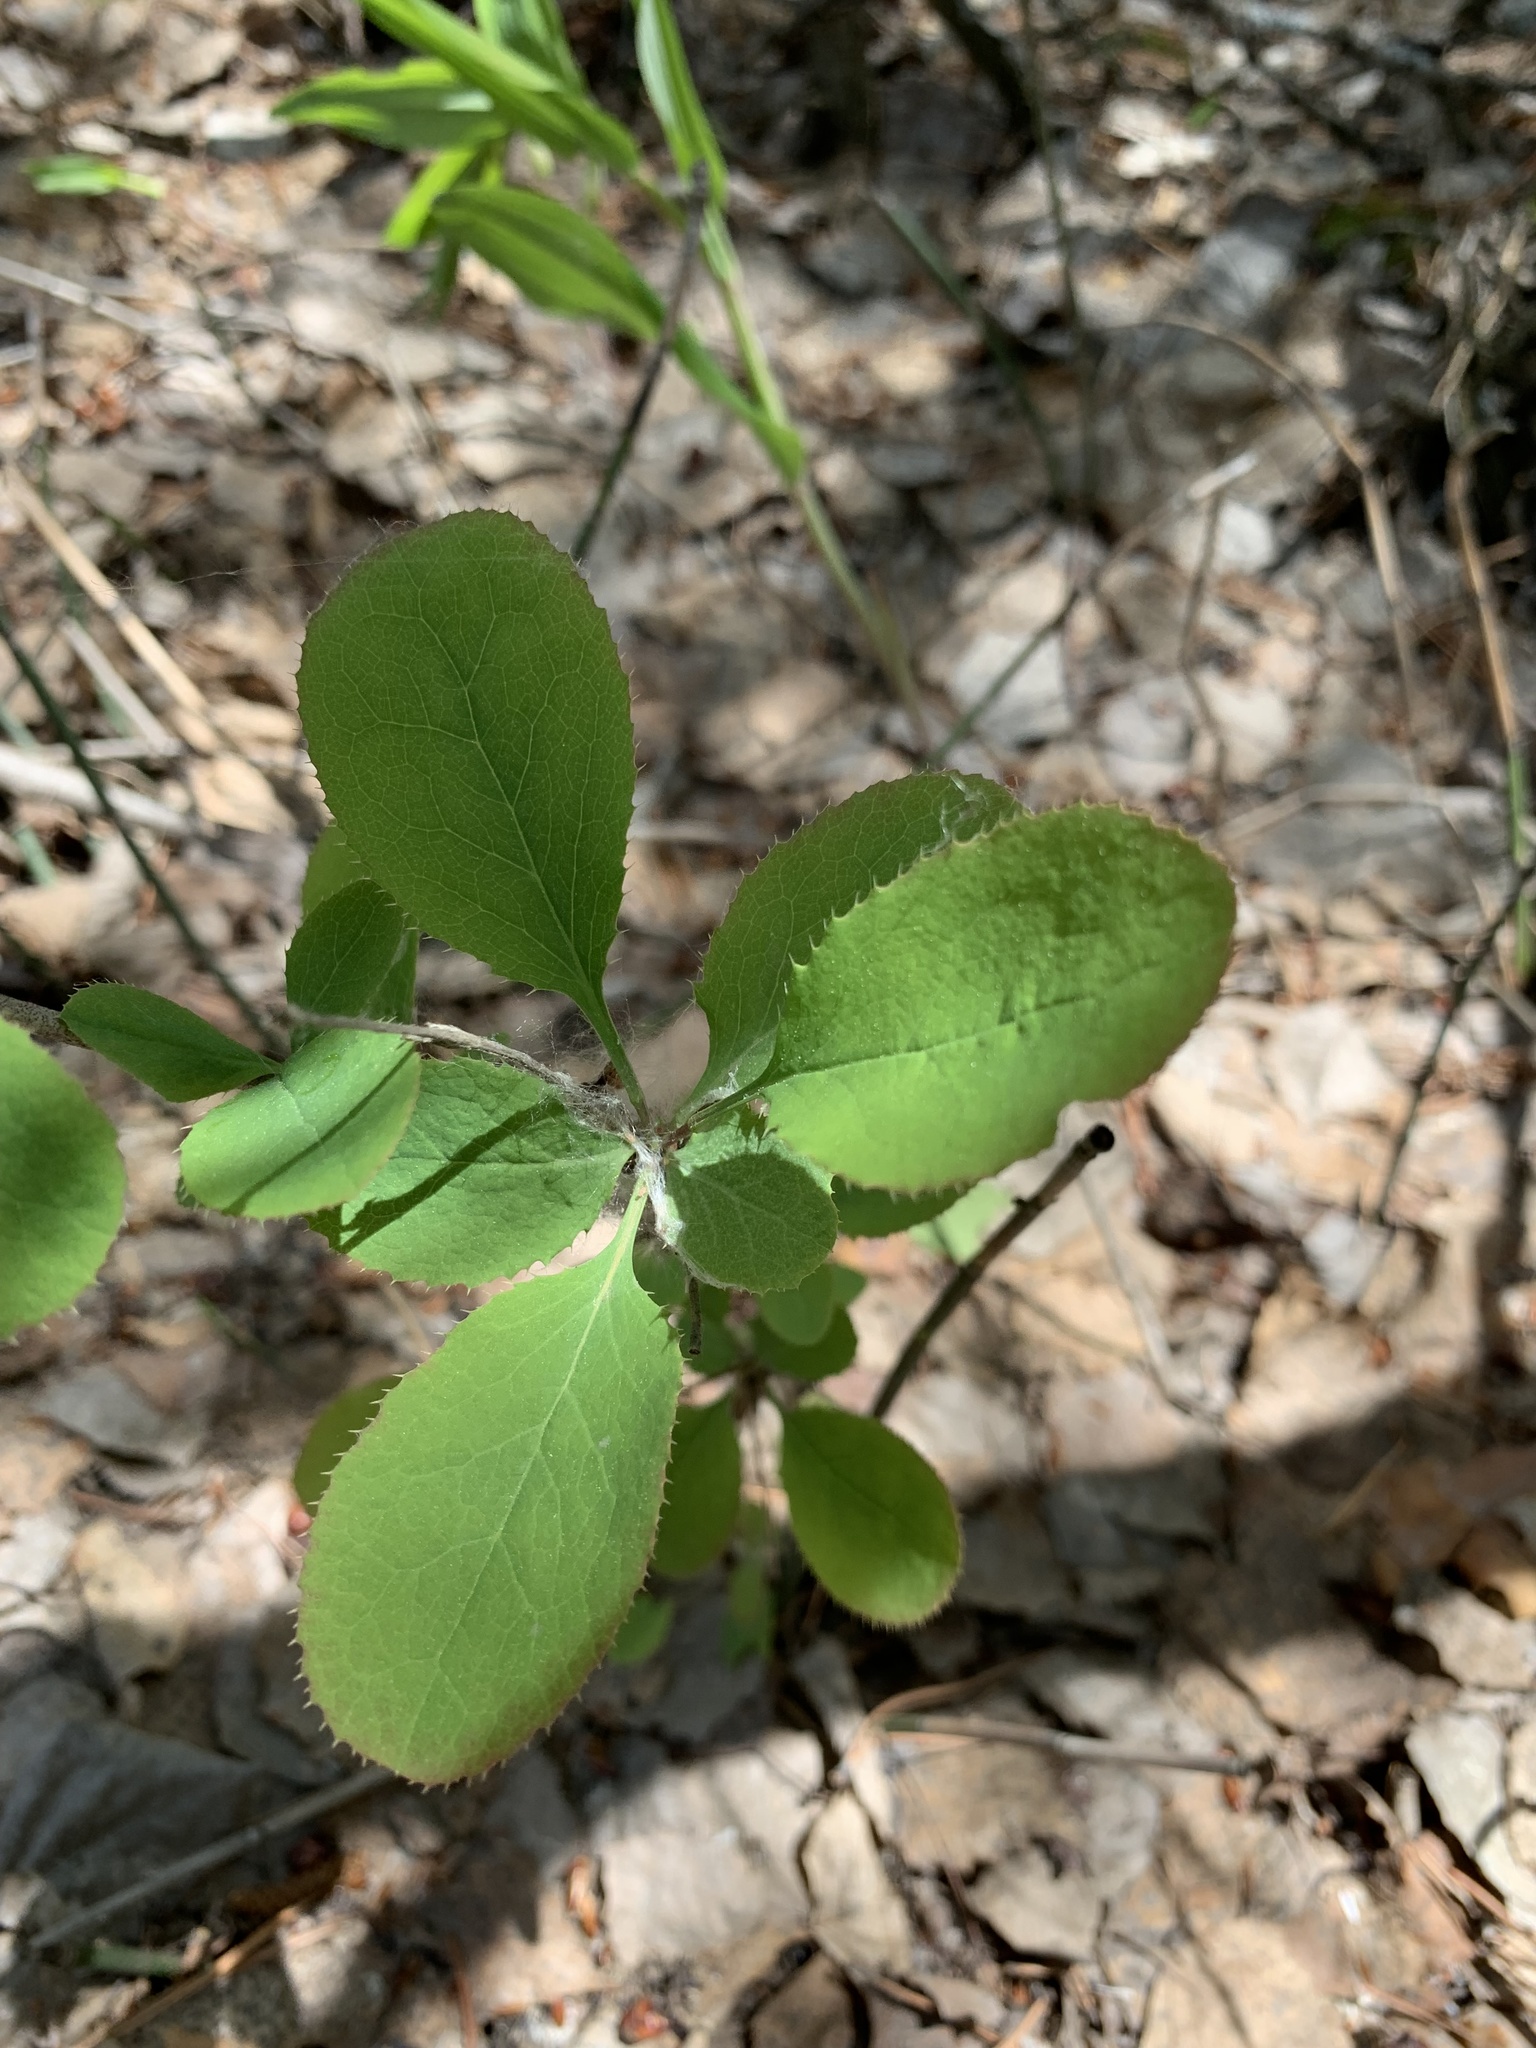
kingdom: Plantae
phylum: Tracheophyta
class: Magnoliopsida
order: Ranunculales
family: Berberidaceae
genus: Berberis
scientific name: Berberis vulgaris
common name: Barberry
